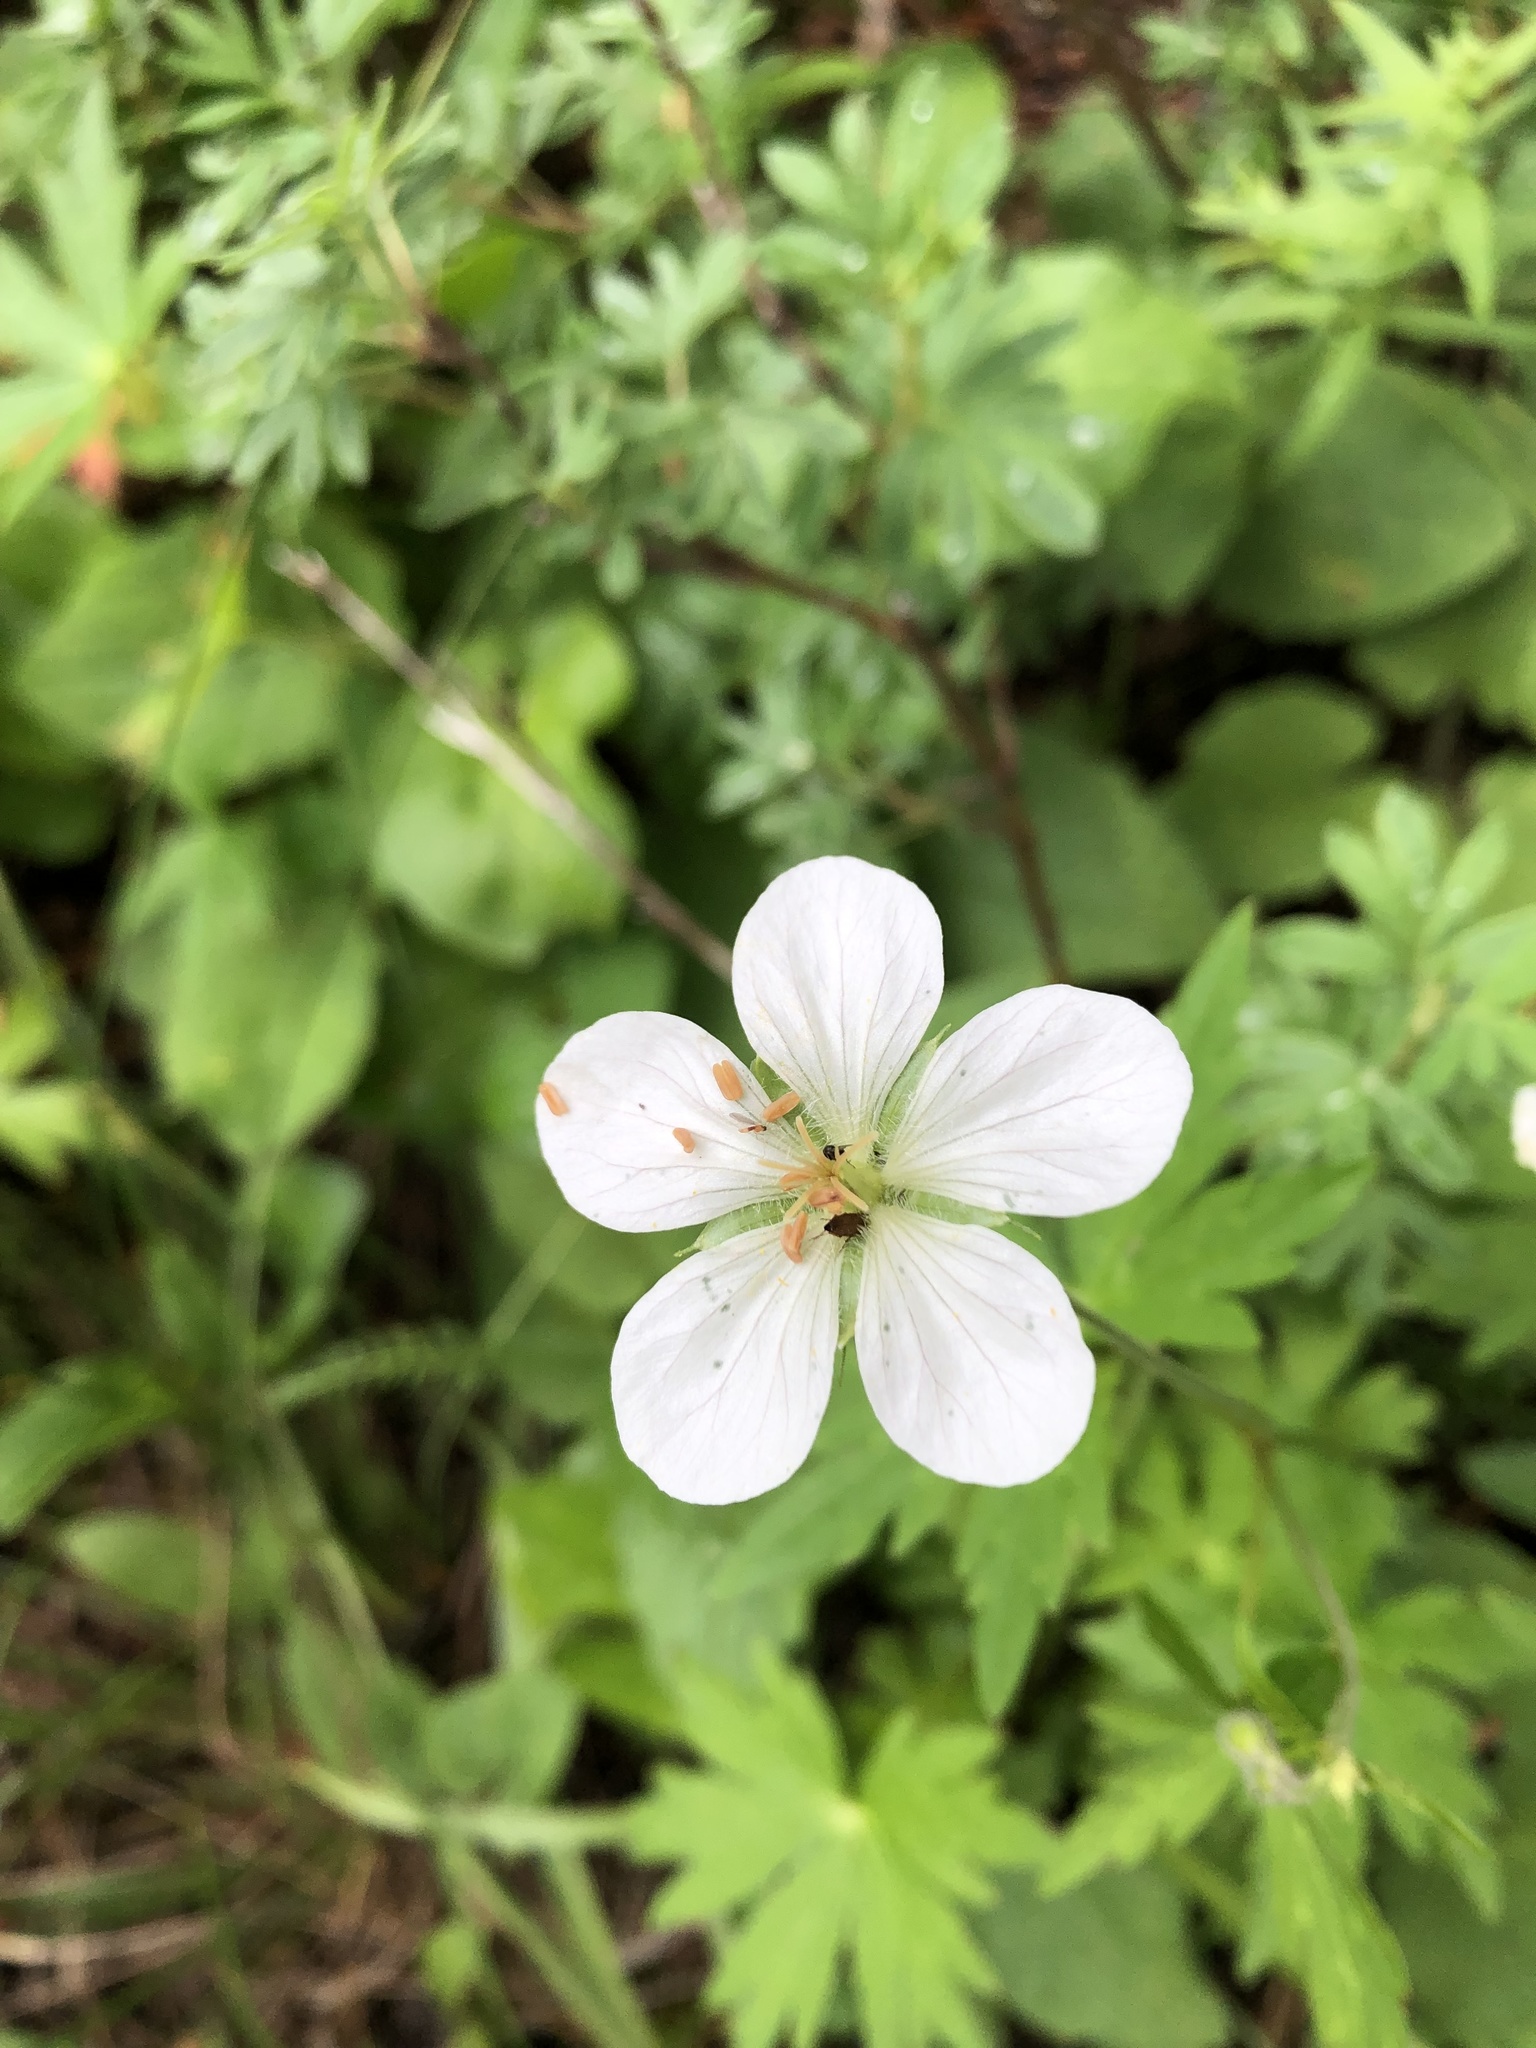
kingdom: Plantae
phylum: Tracheophyta
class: Magnoliopsida
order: Geraniales
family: Geraniaceae
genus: Geranium
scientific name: Geranium richardsonii
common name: Richardson's crane's-bill
